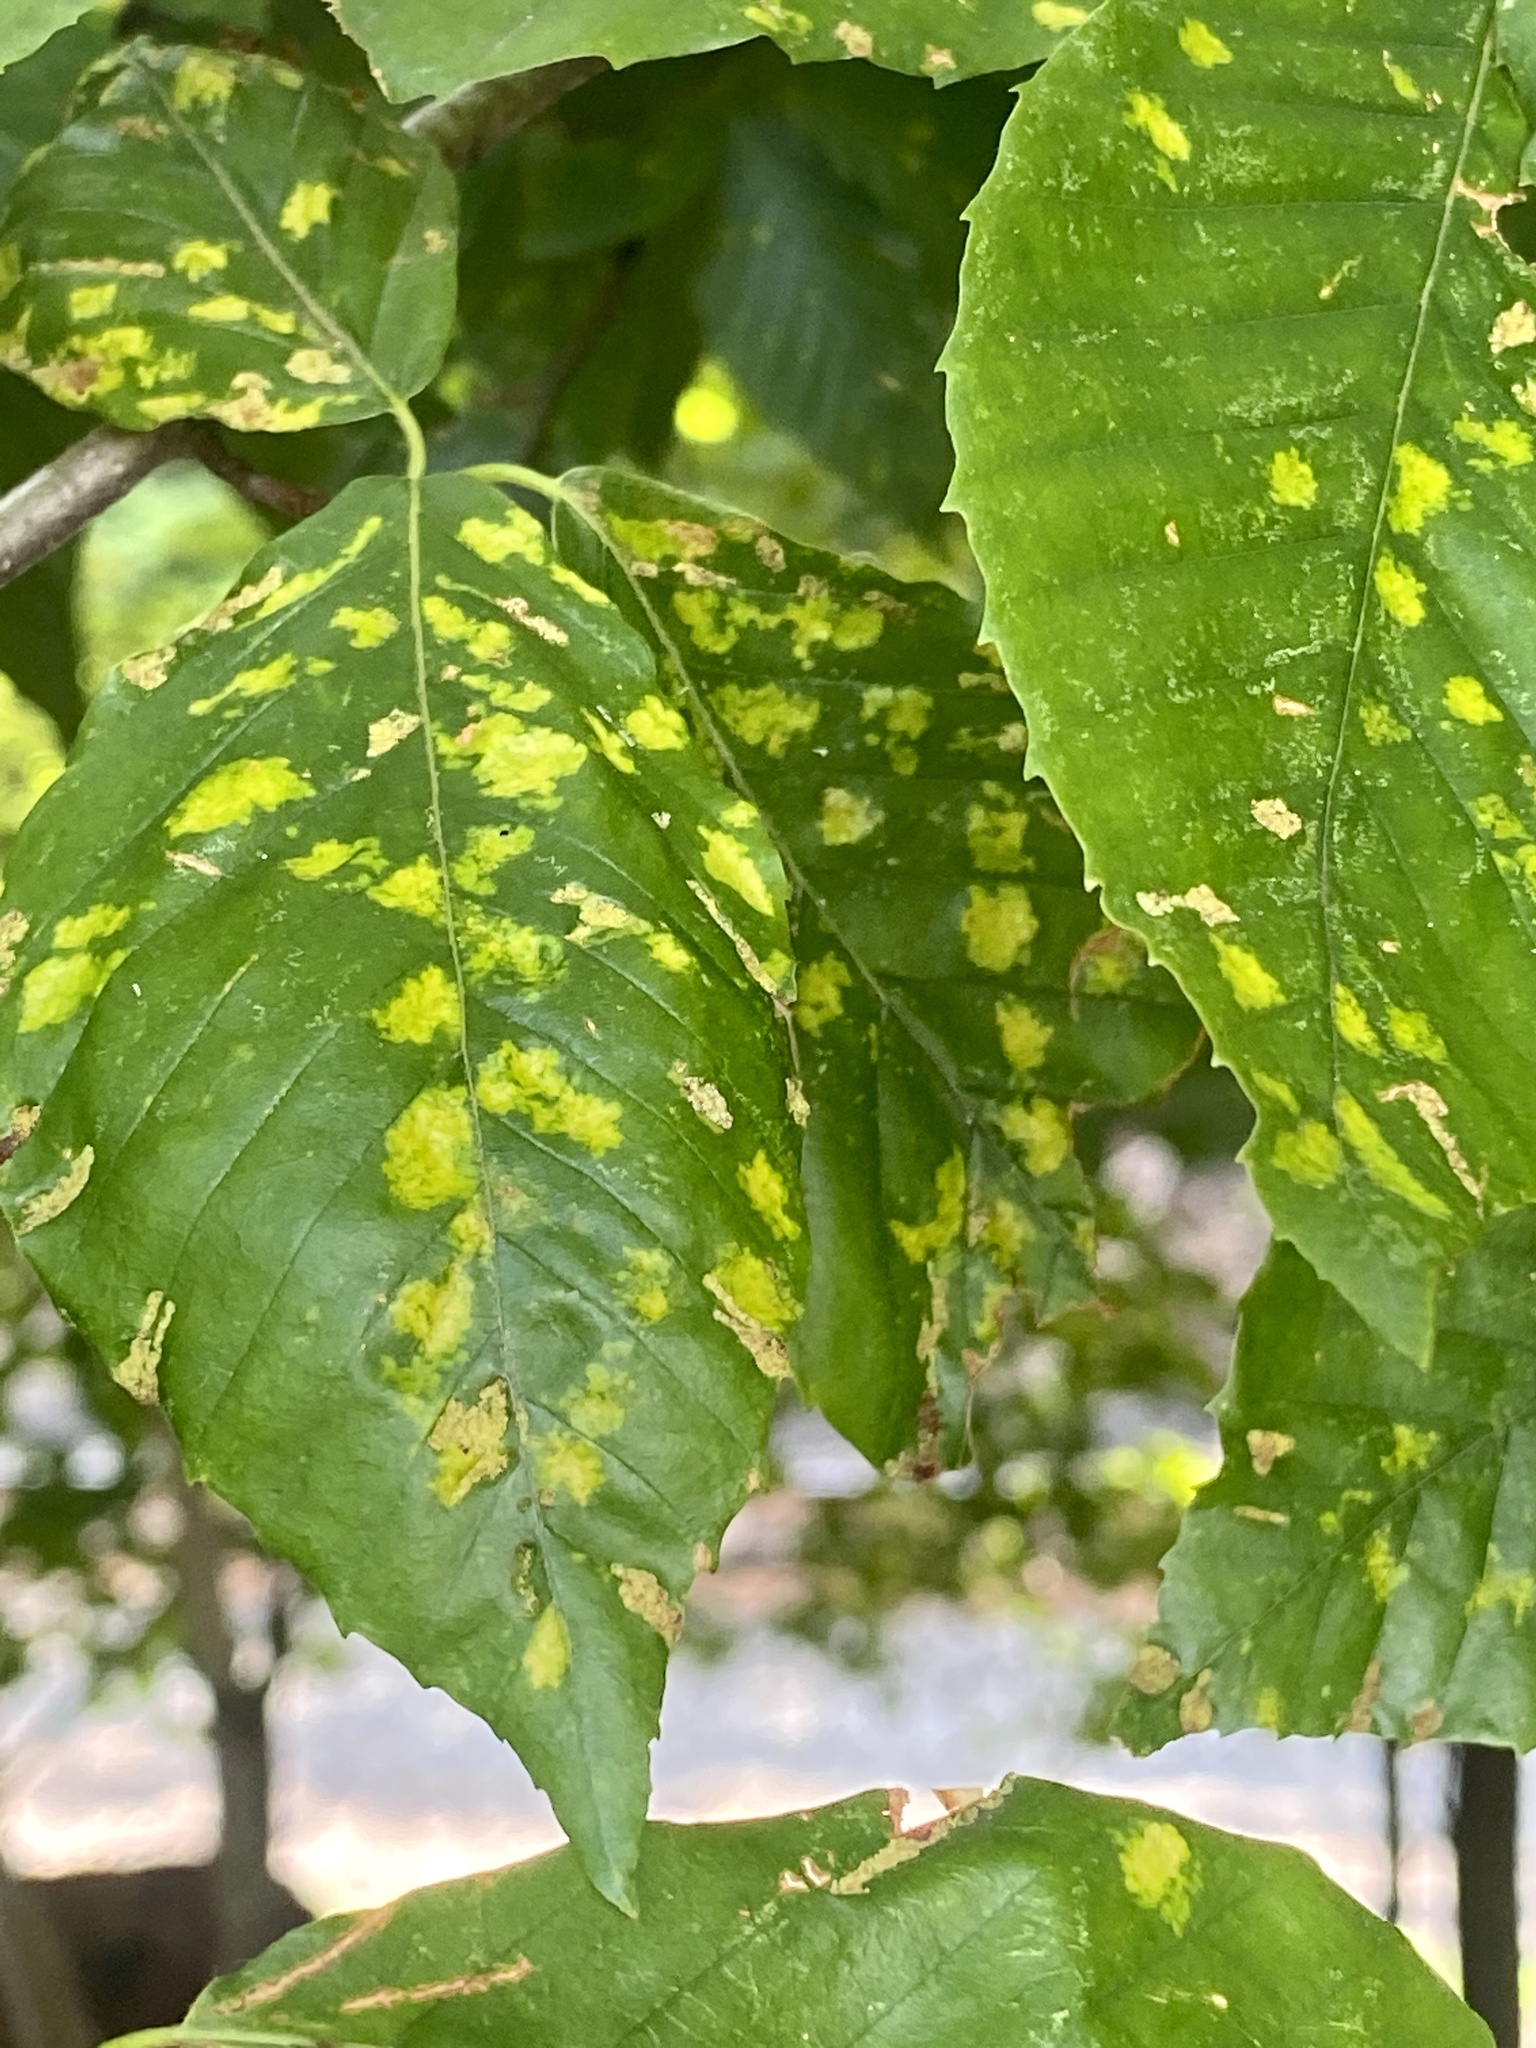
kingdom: Animalia
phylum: Arthropoda
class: Arachnida
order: Trombidiformes
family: Eriophyidae
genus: Acalitus
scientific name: Acalitus
